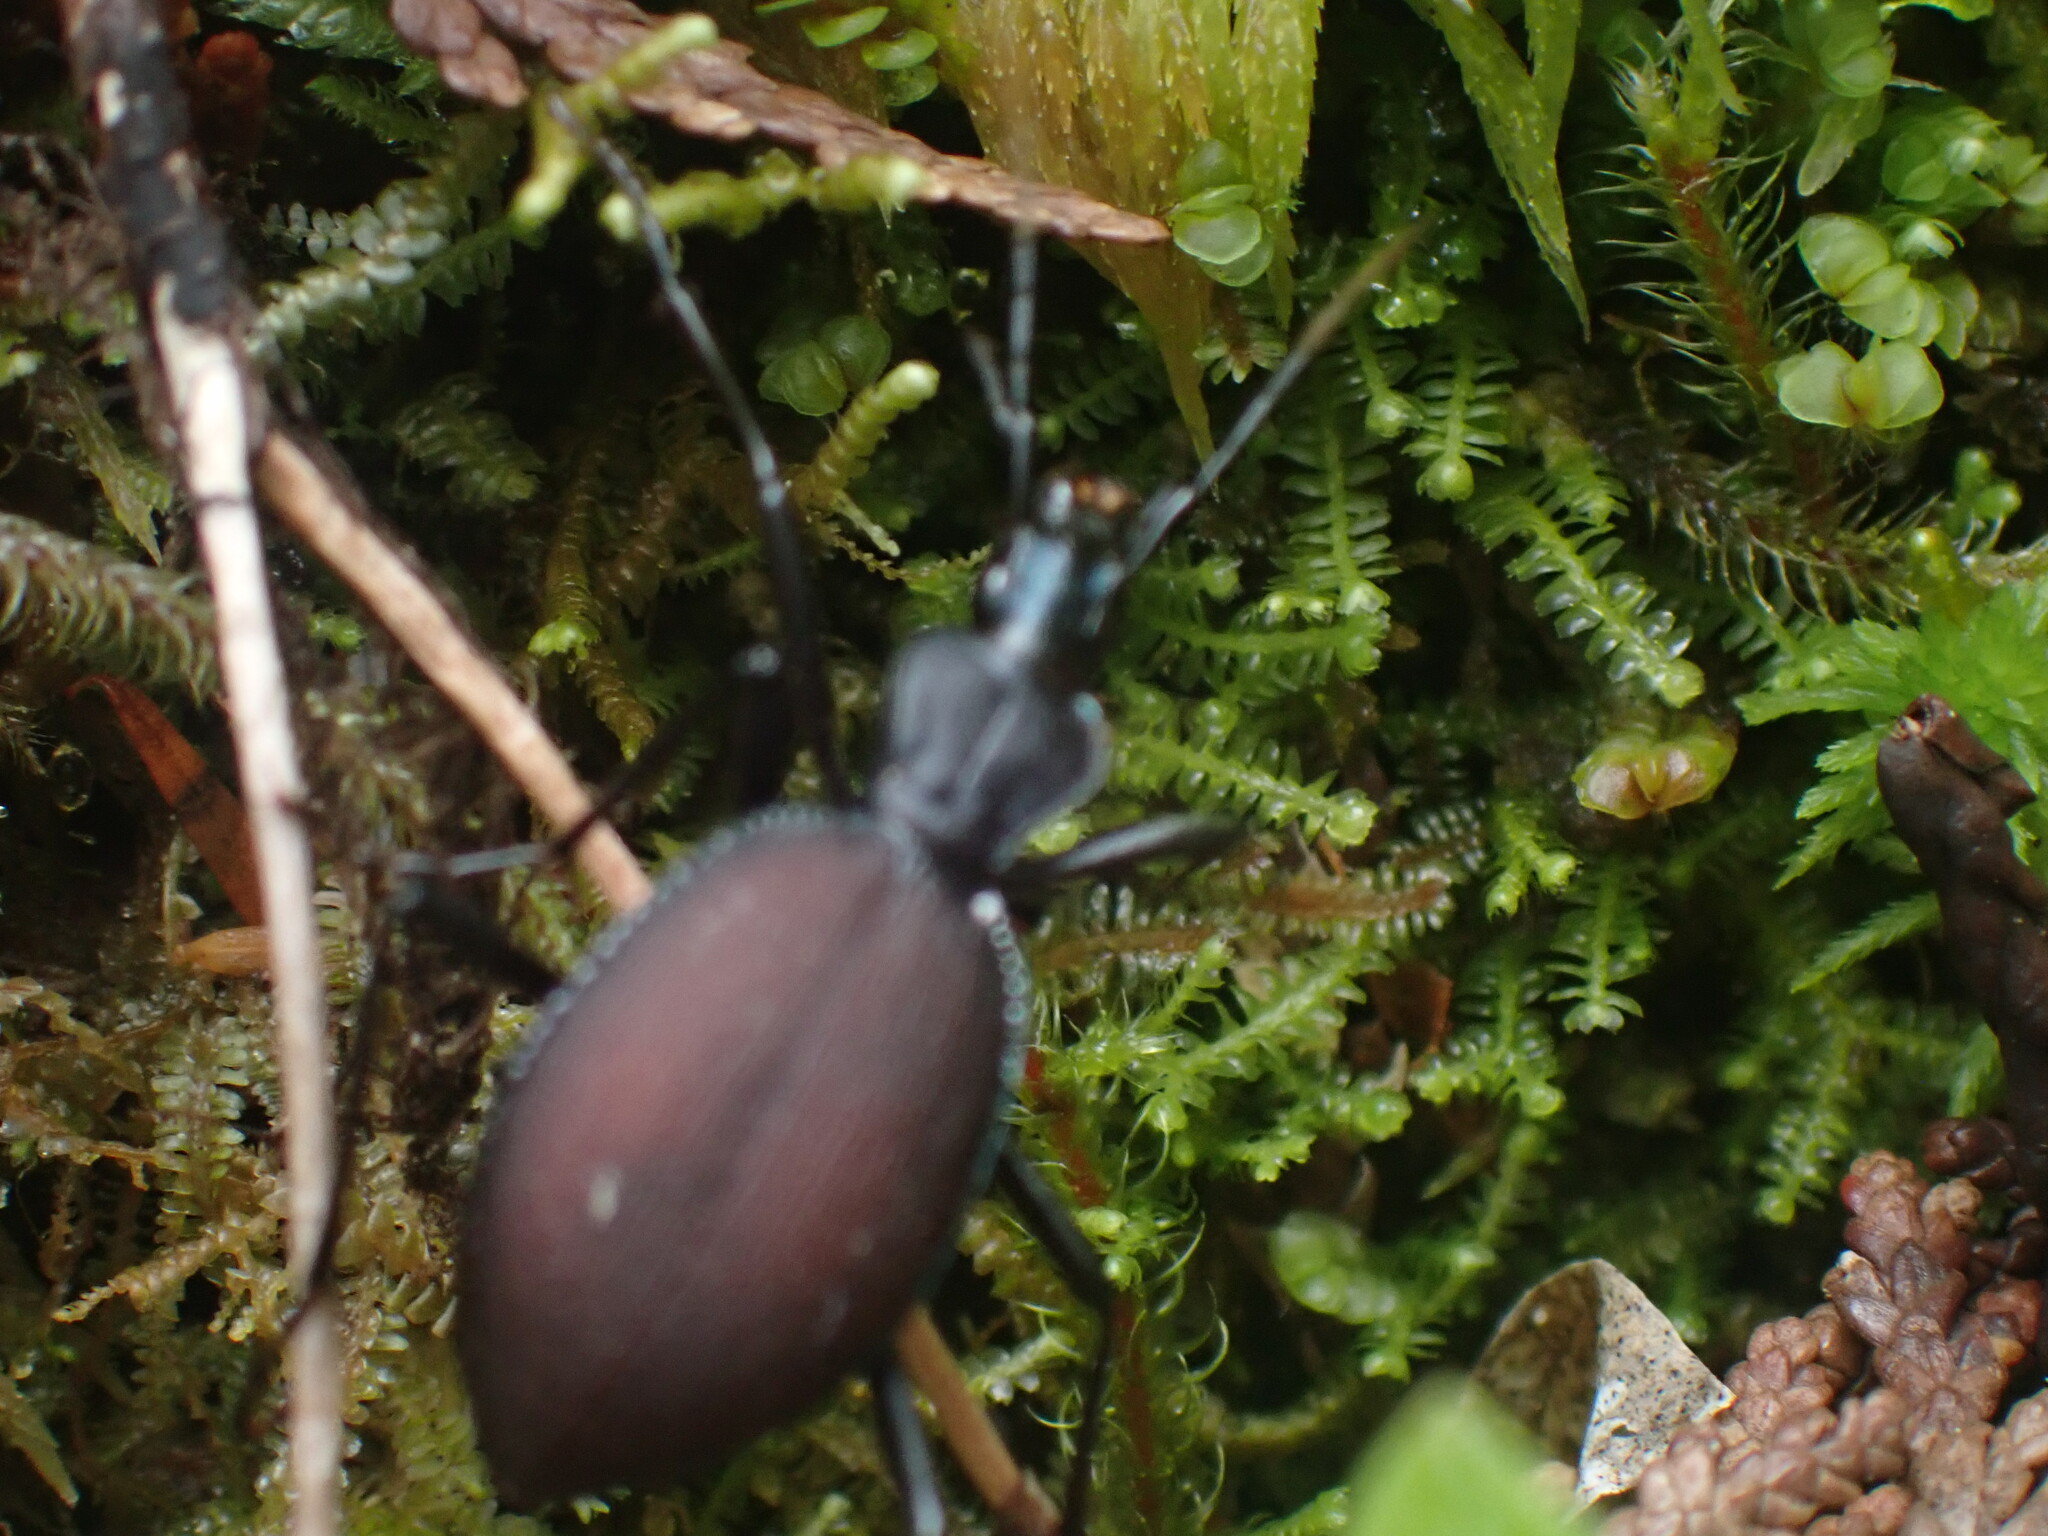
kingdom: Animalia
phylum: Arthropoda
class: Insecta
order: Coleoptera
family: Carabidae
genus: Scaphinotus
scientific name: Scaphinotus angusticollis
